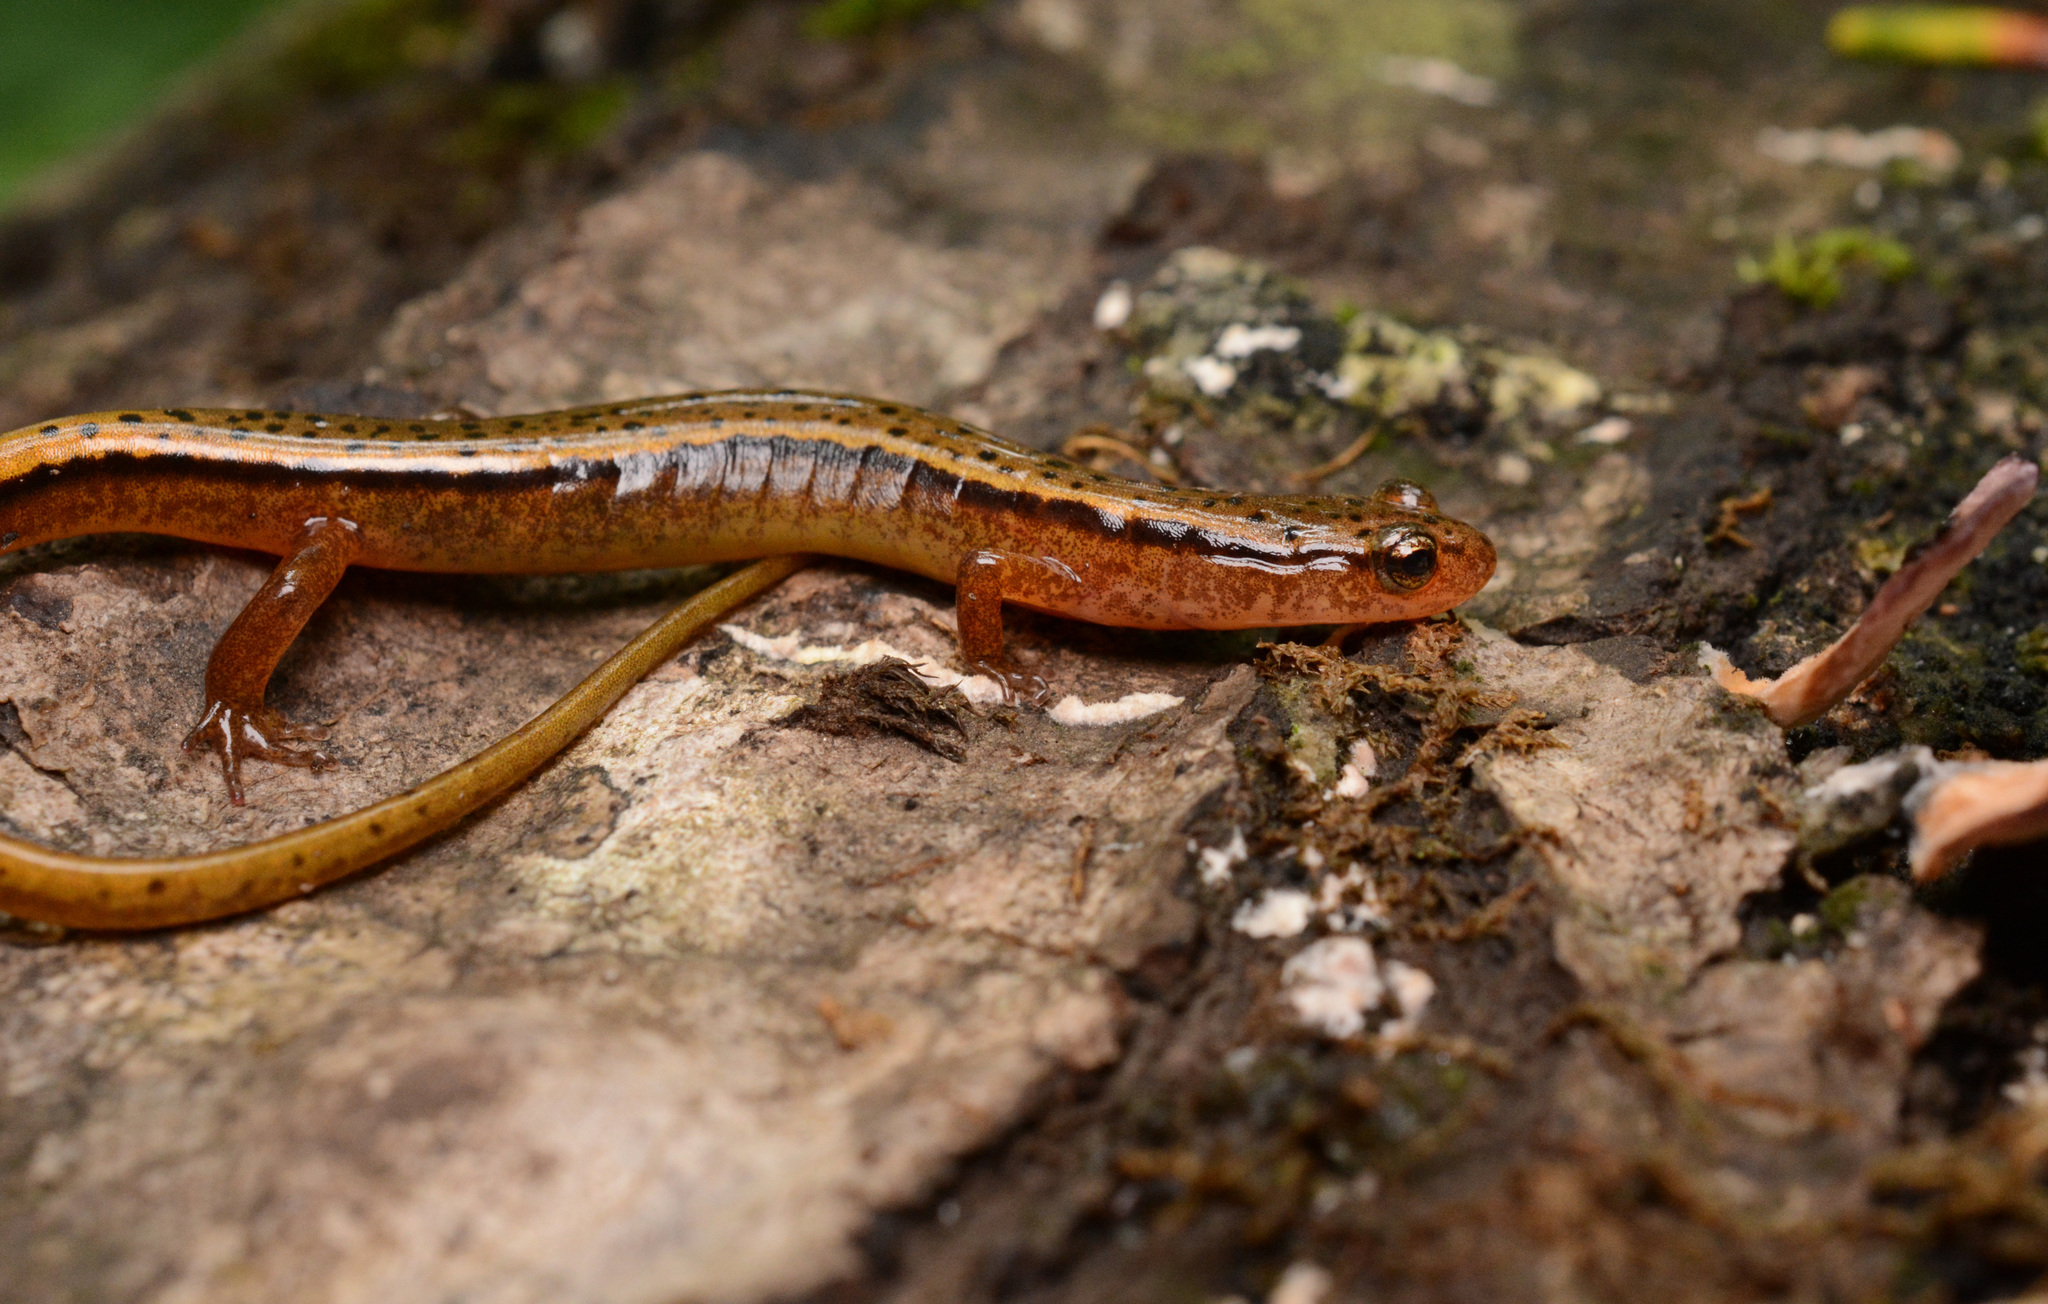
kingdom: Animalia
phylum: Chordata
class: Amphibia
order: Caudata
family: Plethodontidae
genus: Eurycea
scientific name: Eurycea wilderae
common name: Blue ridge two-lined salamander
